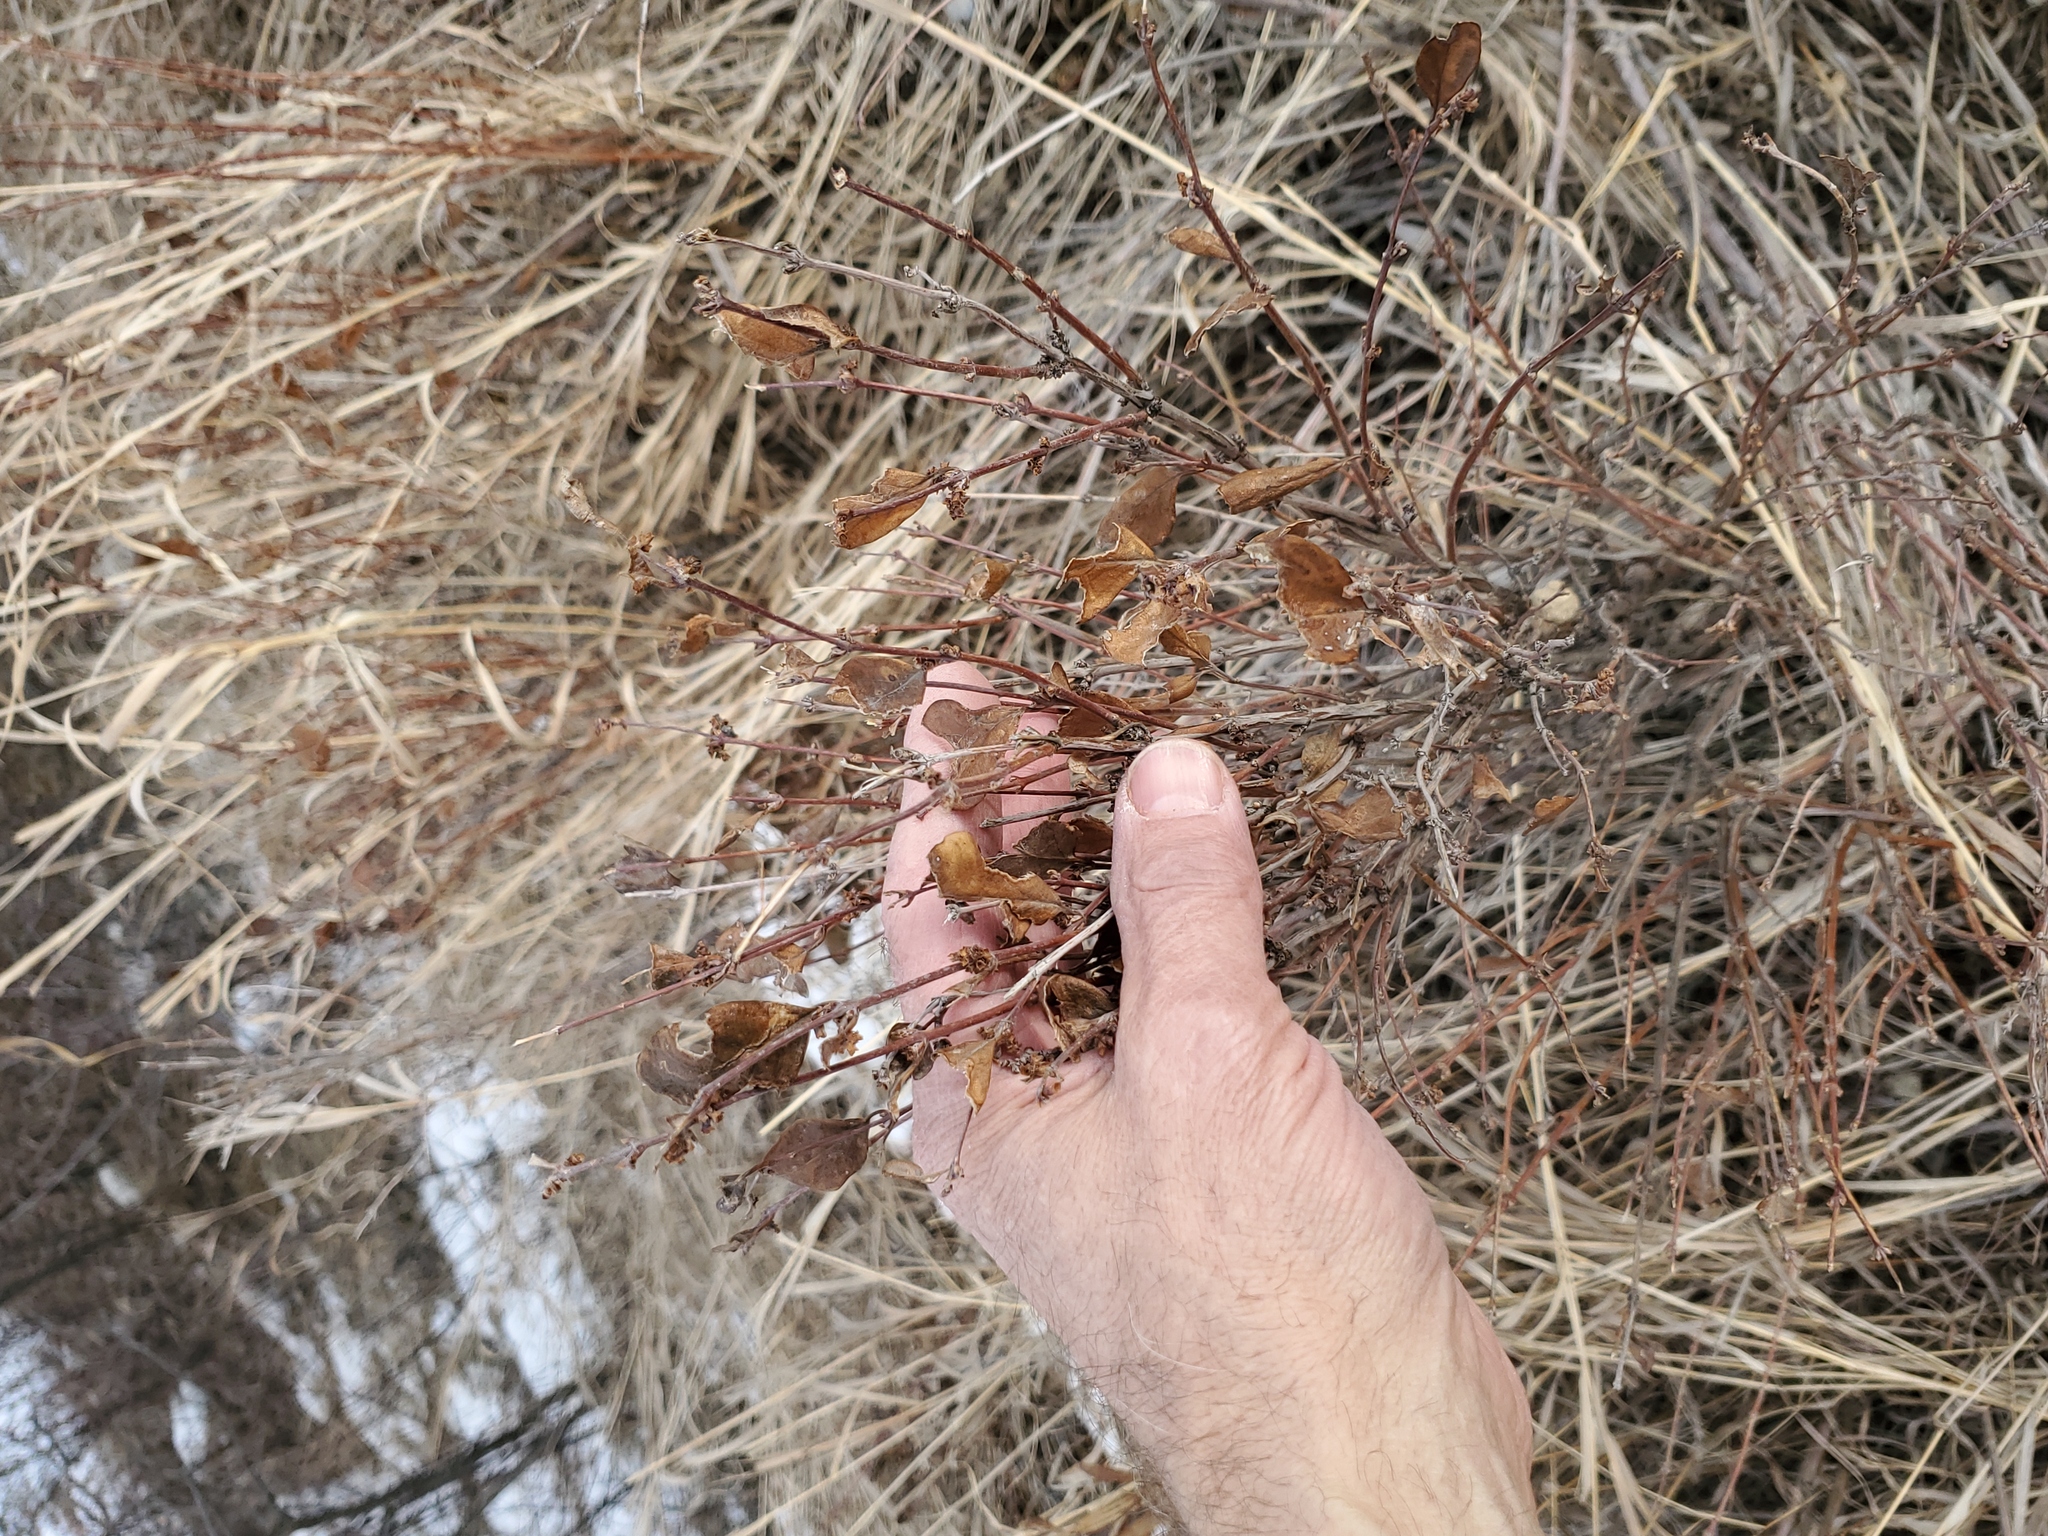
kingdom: Plantae
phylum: Tracheophyta
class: Magnoliopsida
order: Dipsacales
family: Caprifoliaceae
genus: Symphoricarpos
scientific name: Symphoricarpos occidentalis
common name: Wolfberry
